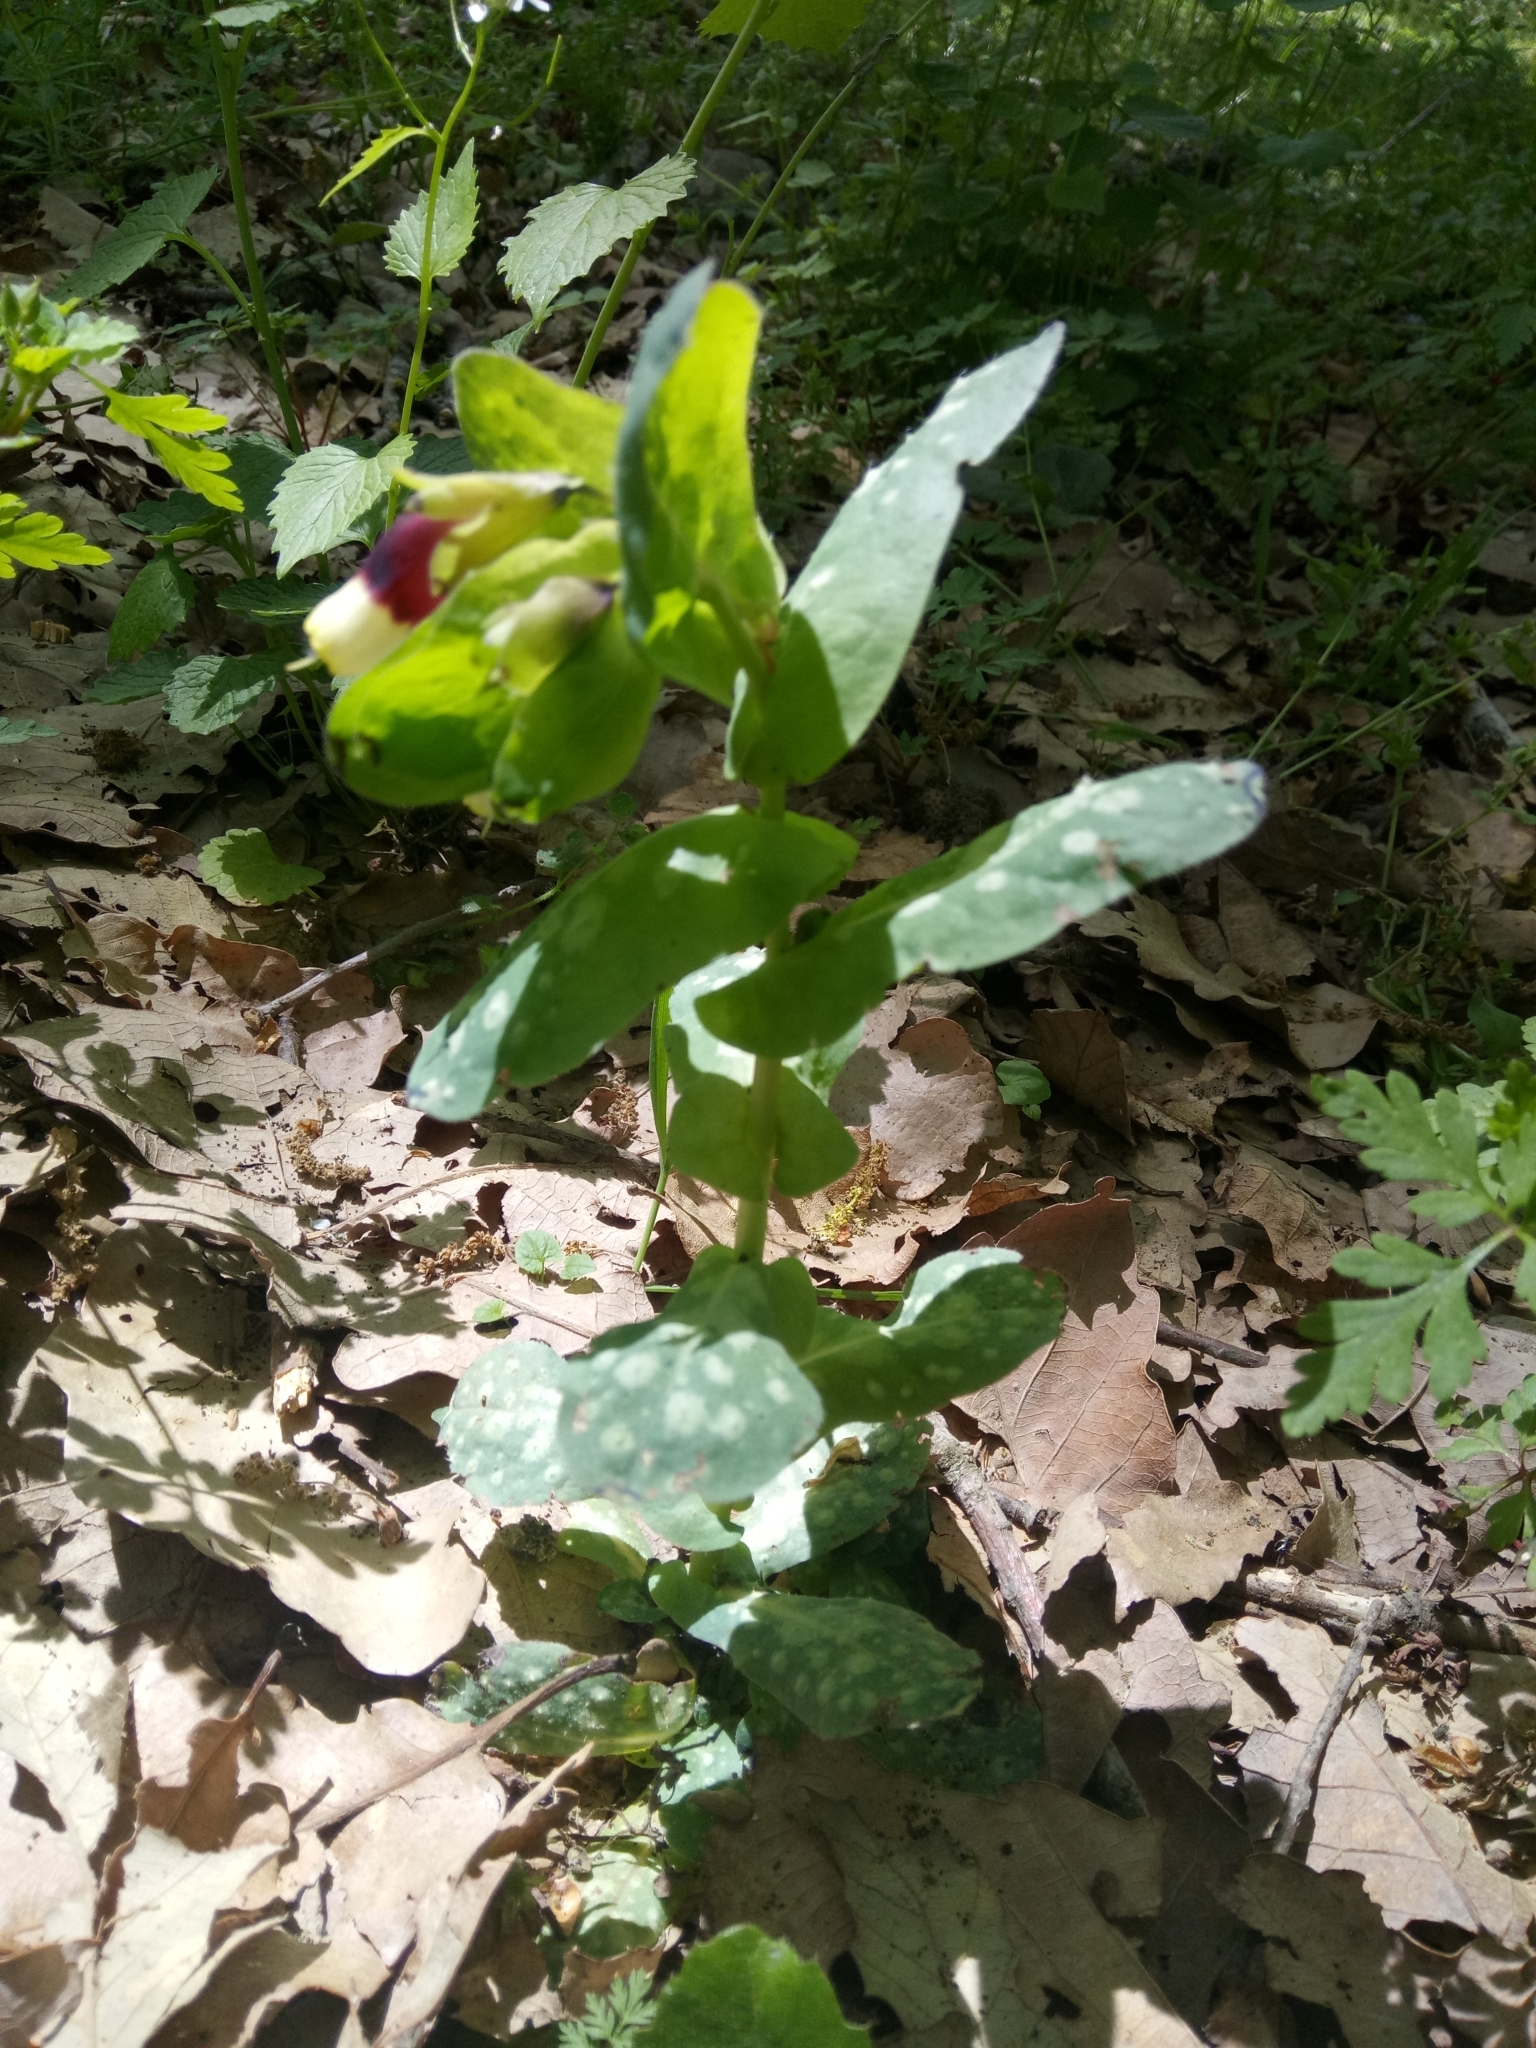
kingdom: Plantae
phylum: Tracheophyta
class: Magnoliopsida
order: Boraginales
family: Boraginaceae
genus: Cerinthe
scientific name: Cerinthe major
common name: Greater honeywort
